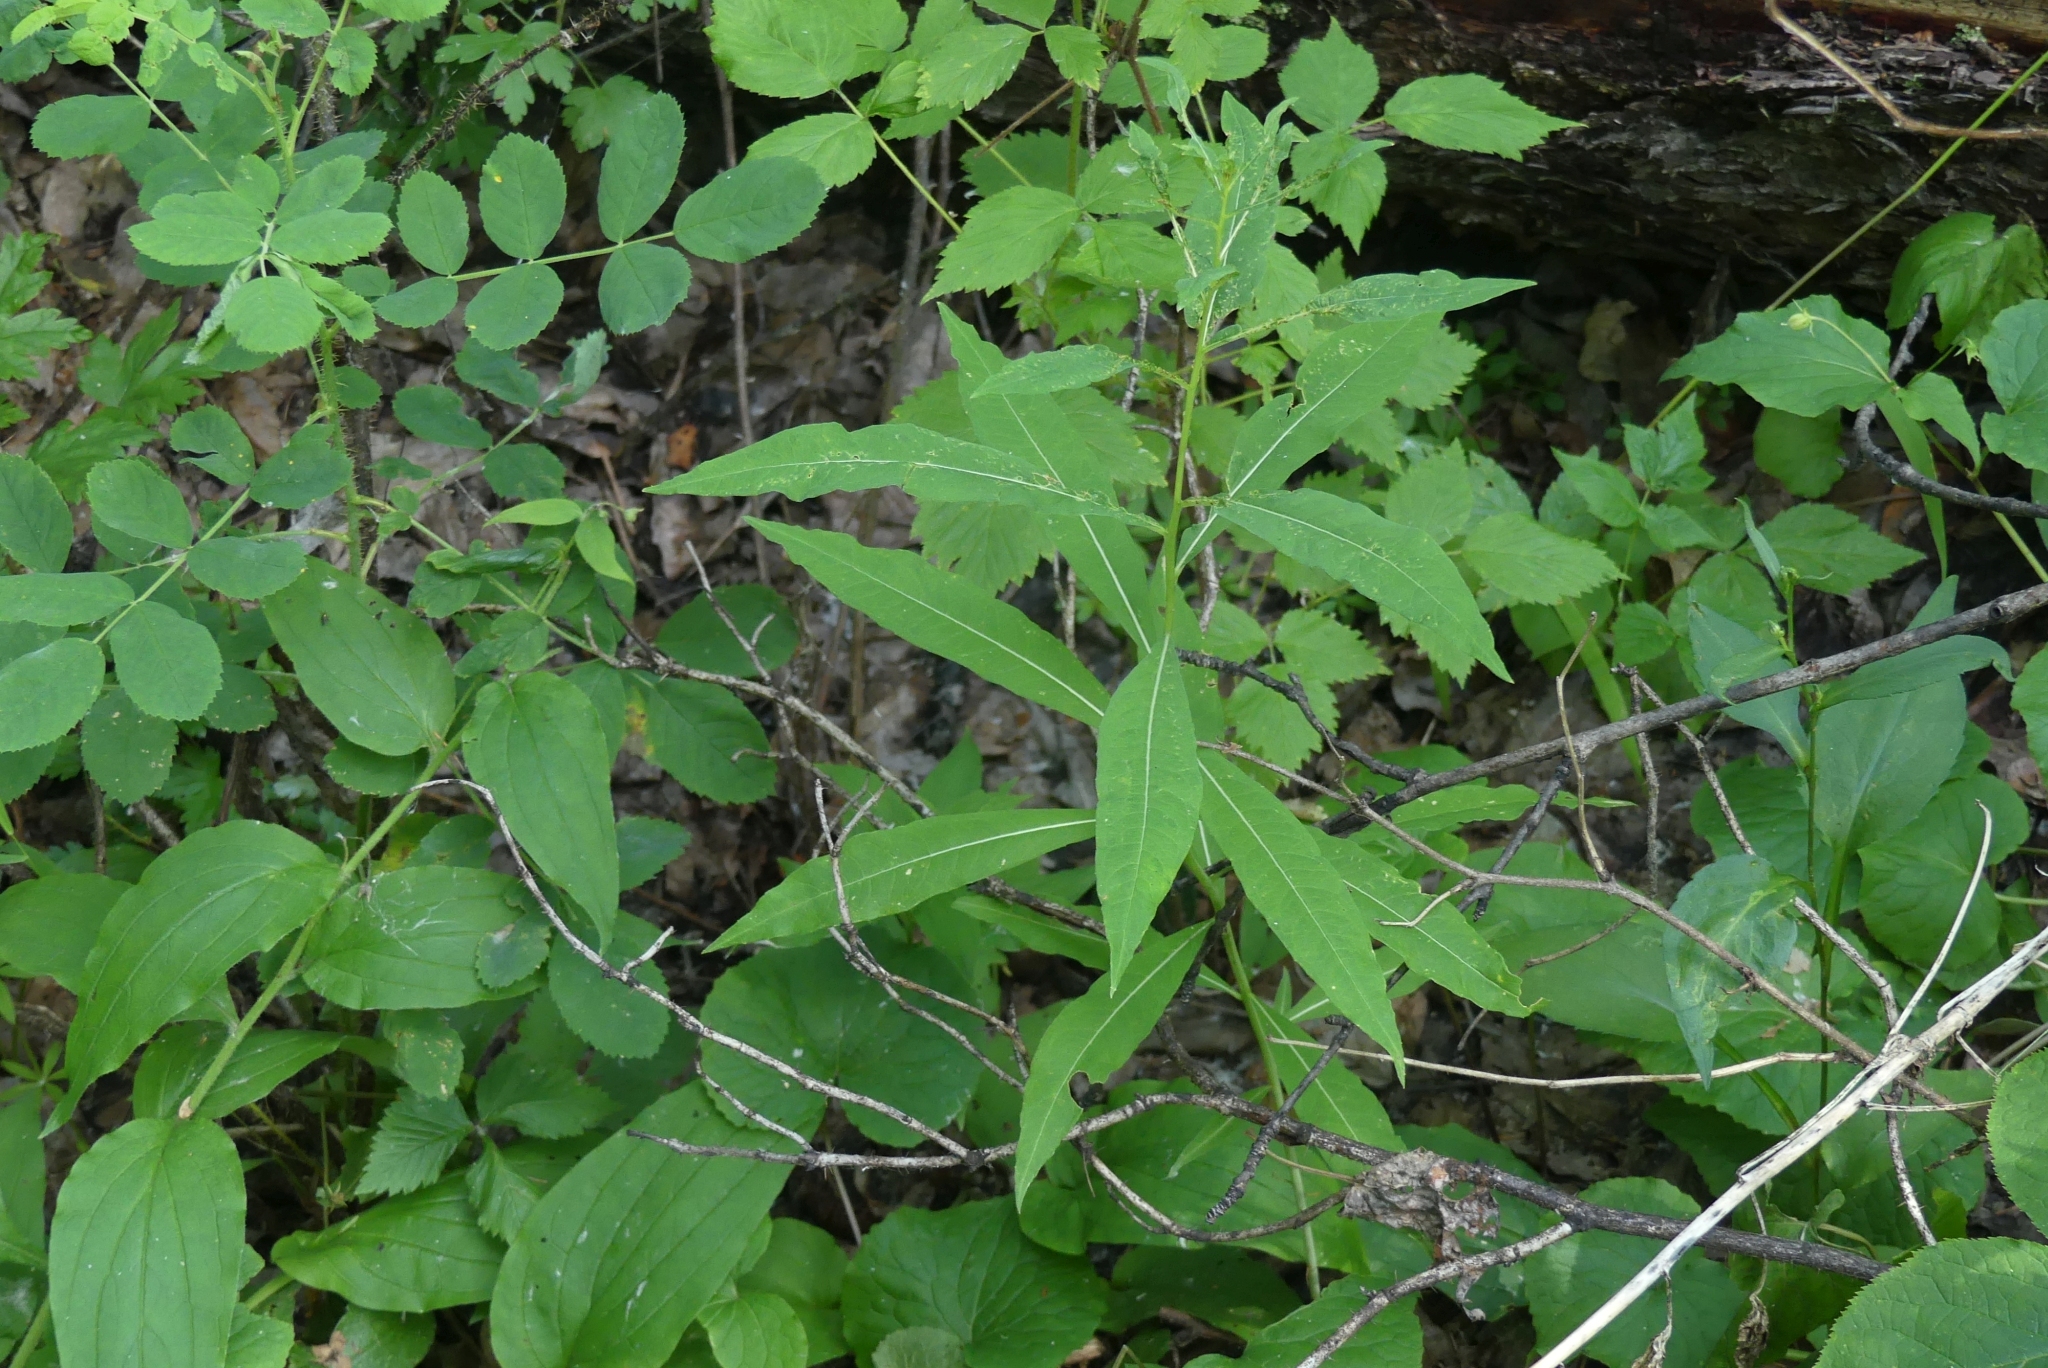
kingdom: Plantae
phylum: Tracheophyta
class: Magnoliopsida
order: Myrtales
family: Onagraceae
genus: Chamaenerion
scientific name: Chamaenerion angustifolium
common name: Fireweed
